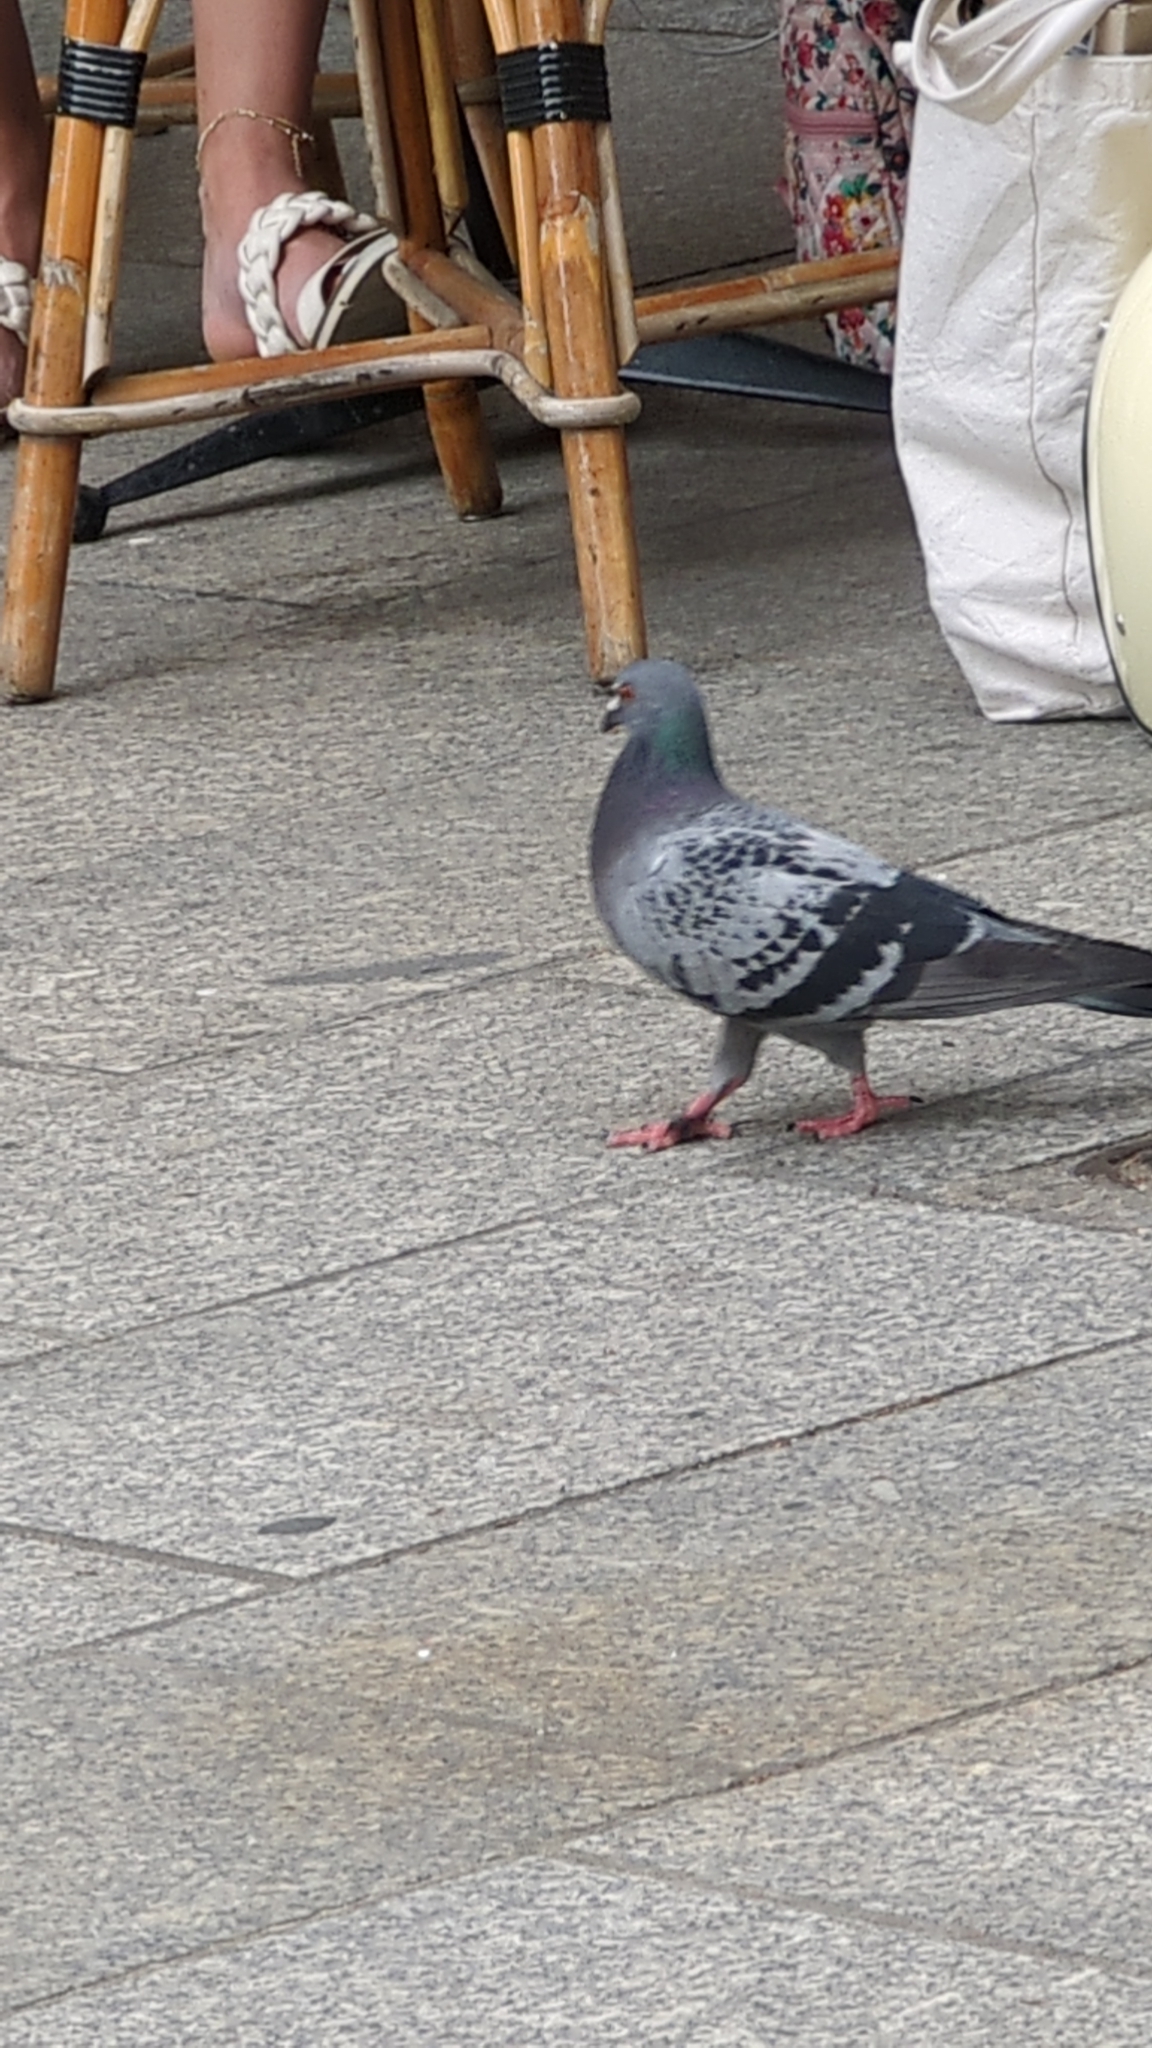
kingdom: Animalia
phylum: Chordata
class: Aves
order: Columbiformes
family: Columbidae
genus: Columba
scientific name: Columba livia
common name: Rock pigeon
